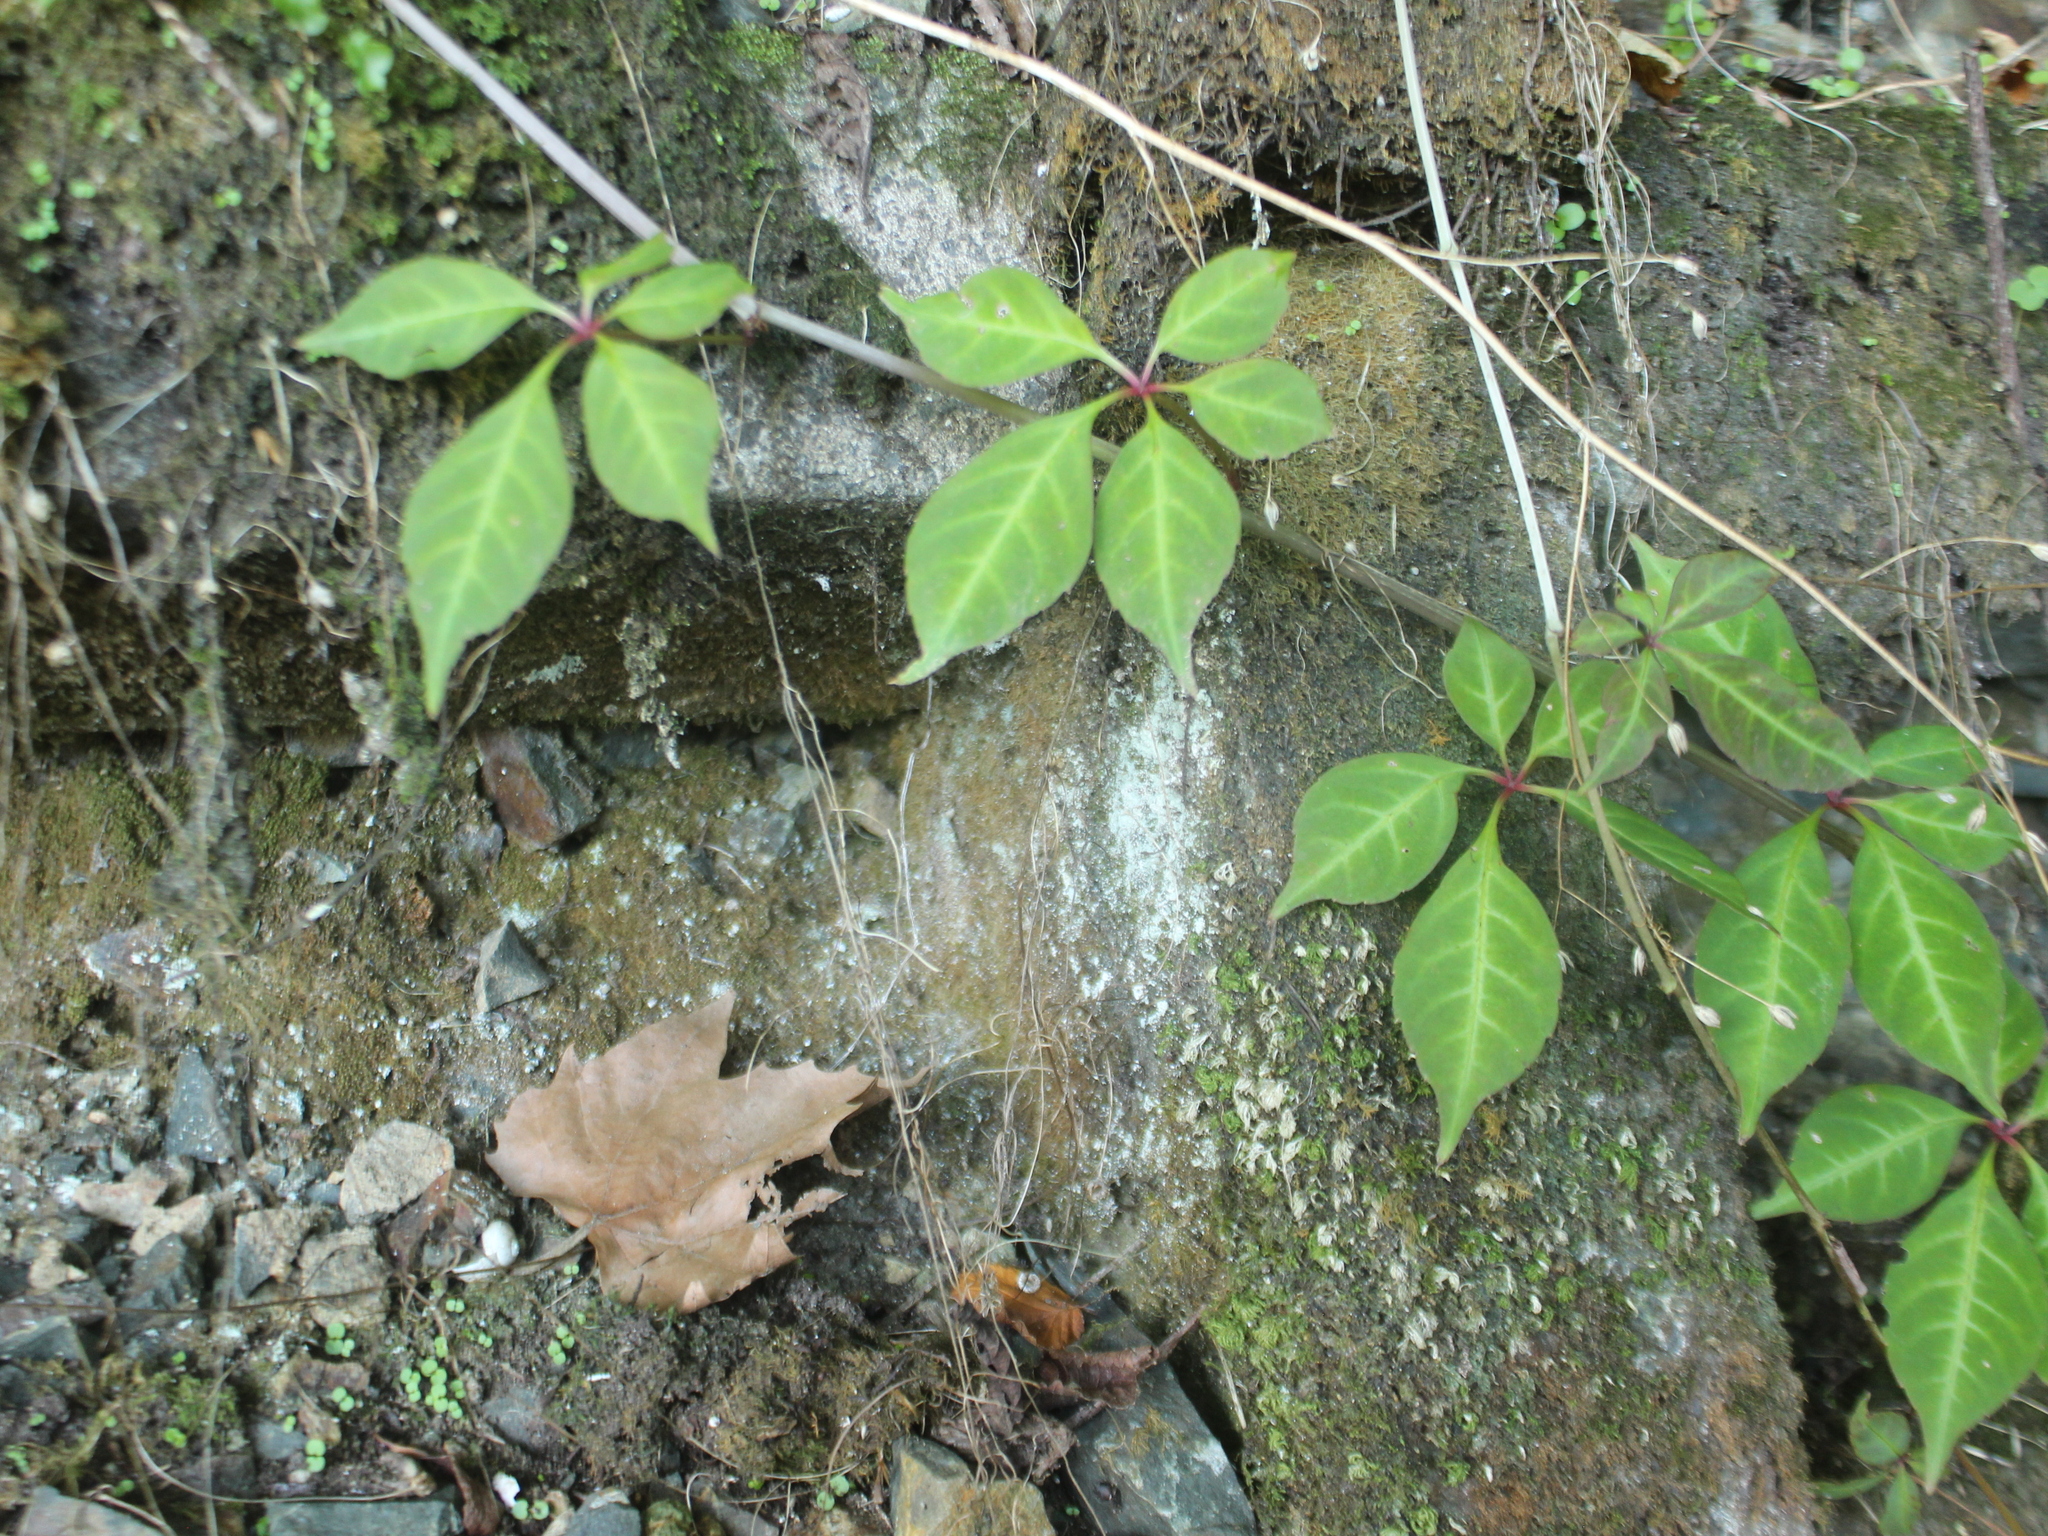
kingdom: Plantae
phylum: Tracheophyta
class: Magnoliopsida
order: Solanales
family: Convolvulaceae
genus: Ipomoea
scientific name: Ipomoea cairica
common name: Mile a minute vine
